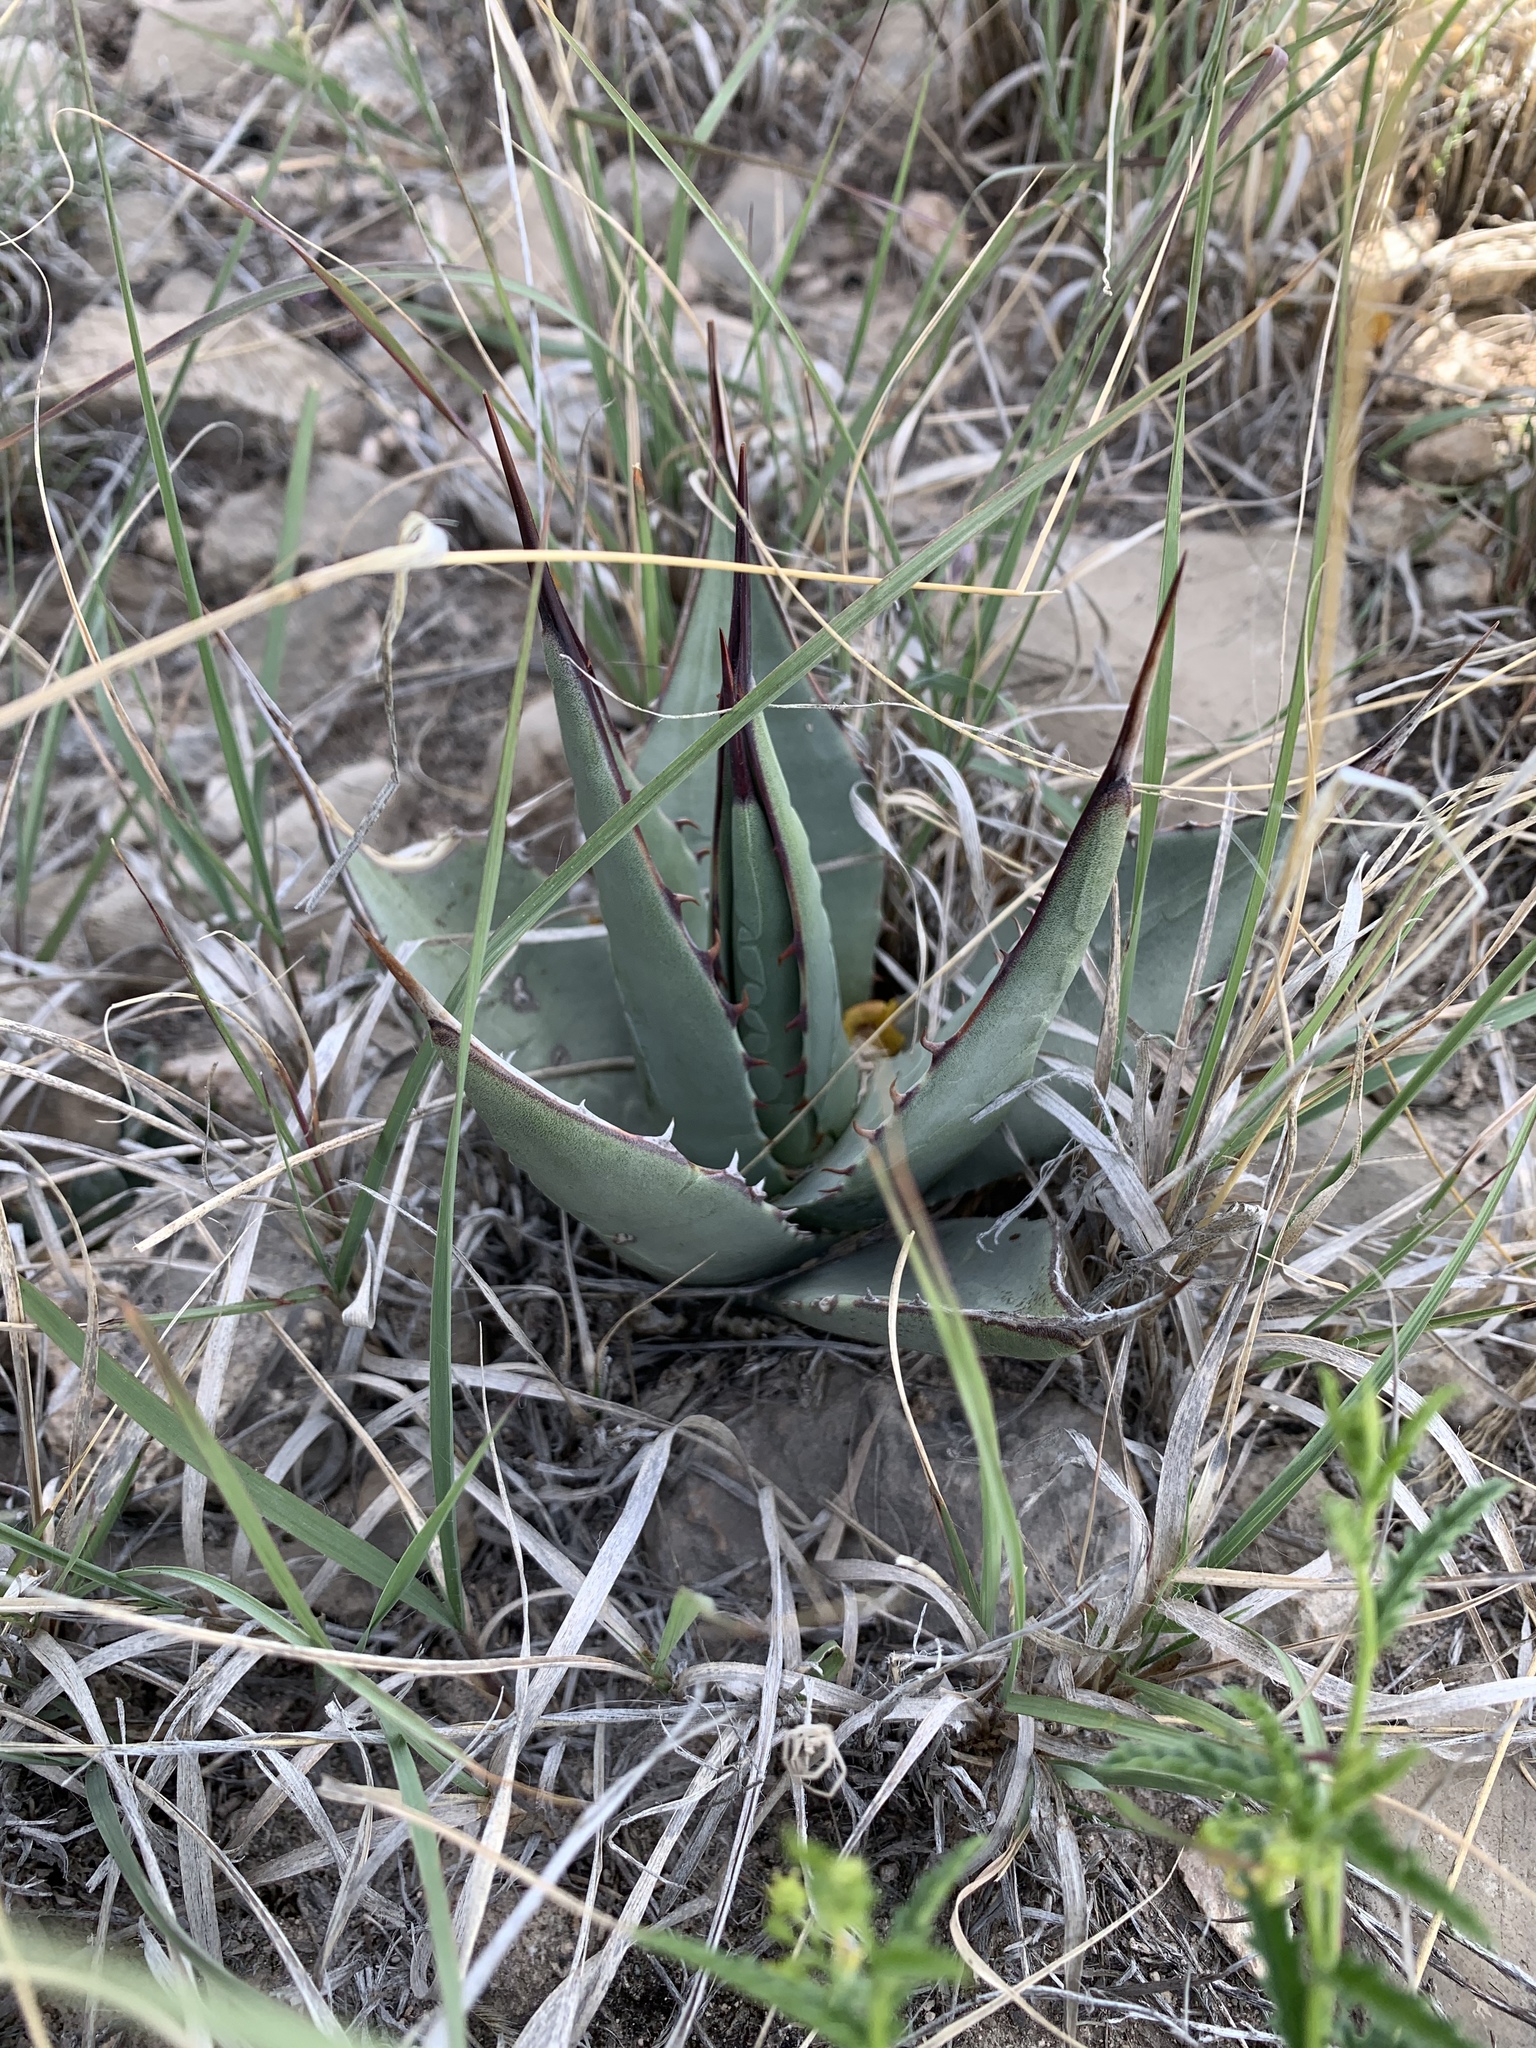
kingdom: Plantae
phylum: Tracheophyta
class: Liliopsida
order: Asparagales
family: Asparagaceae
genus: Agave
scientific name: Agave parryi
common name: Parry's agave
